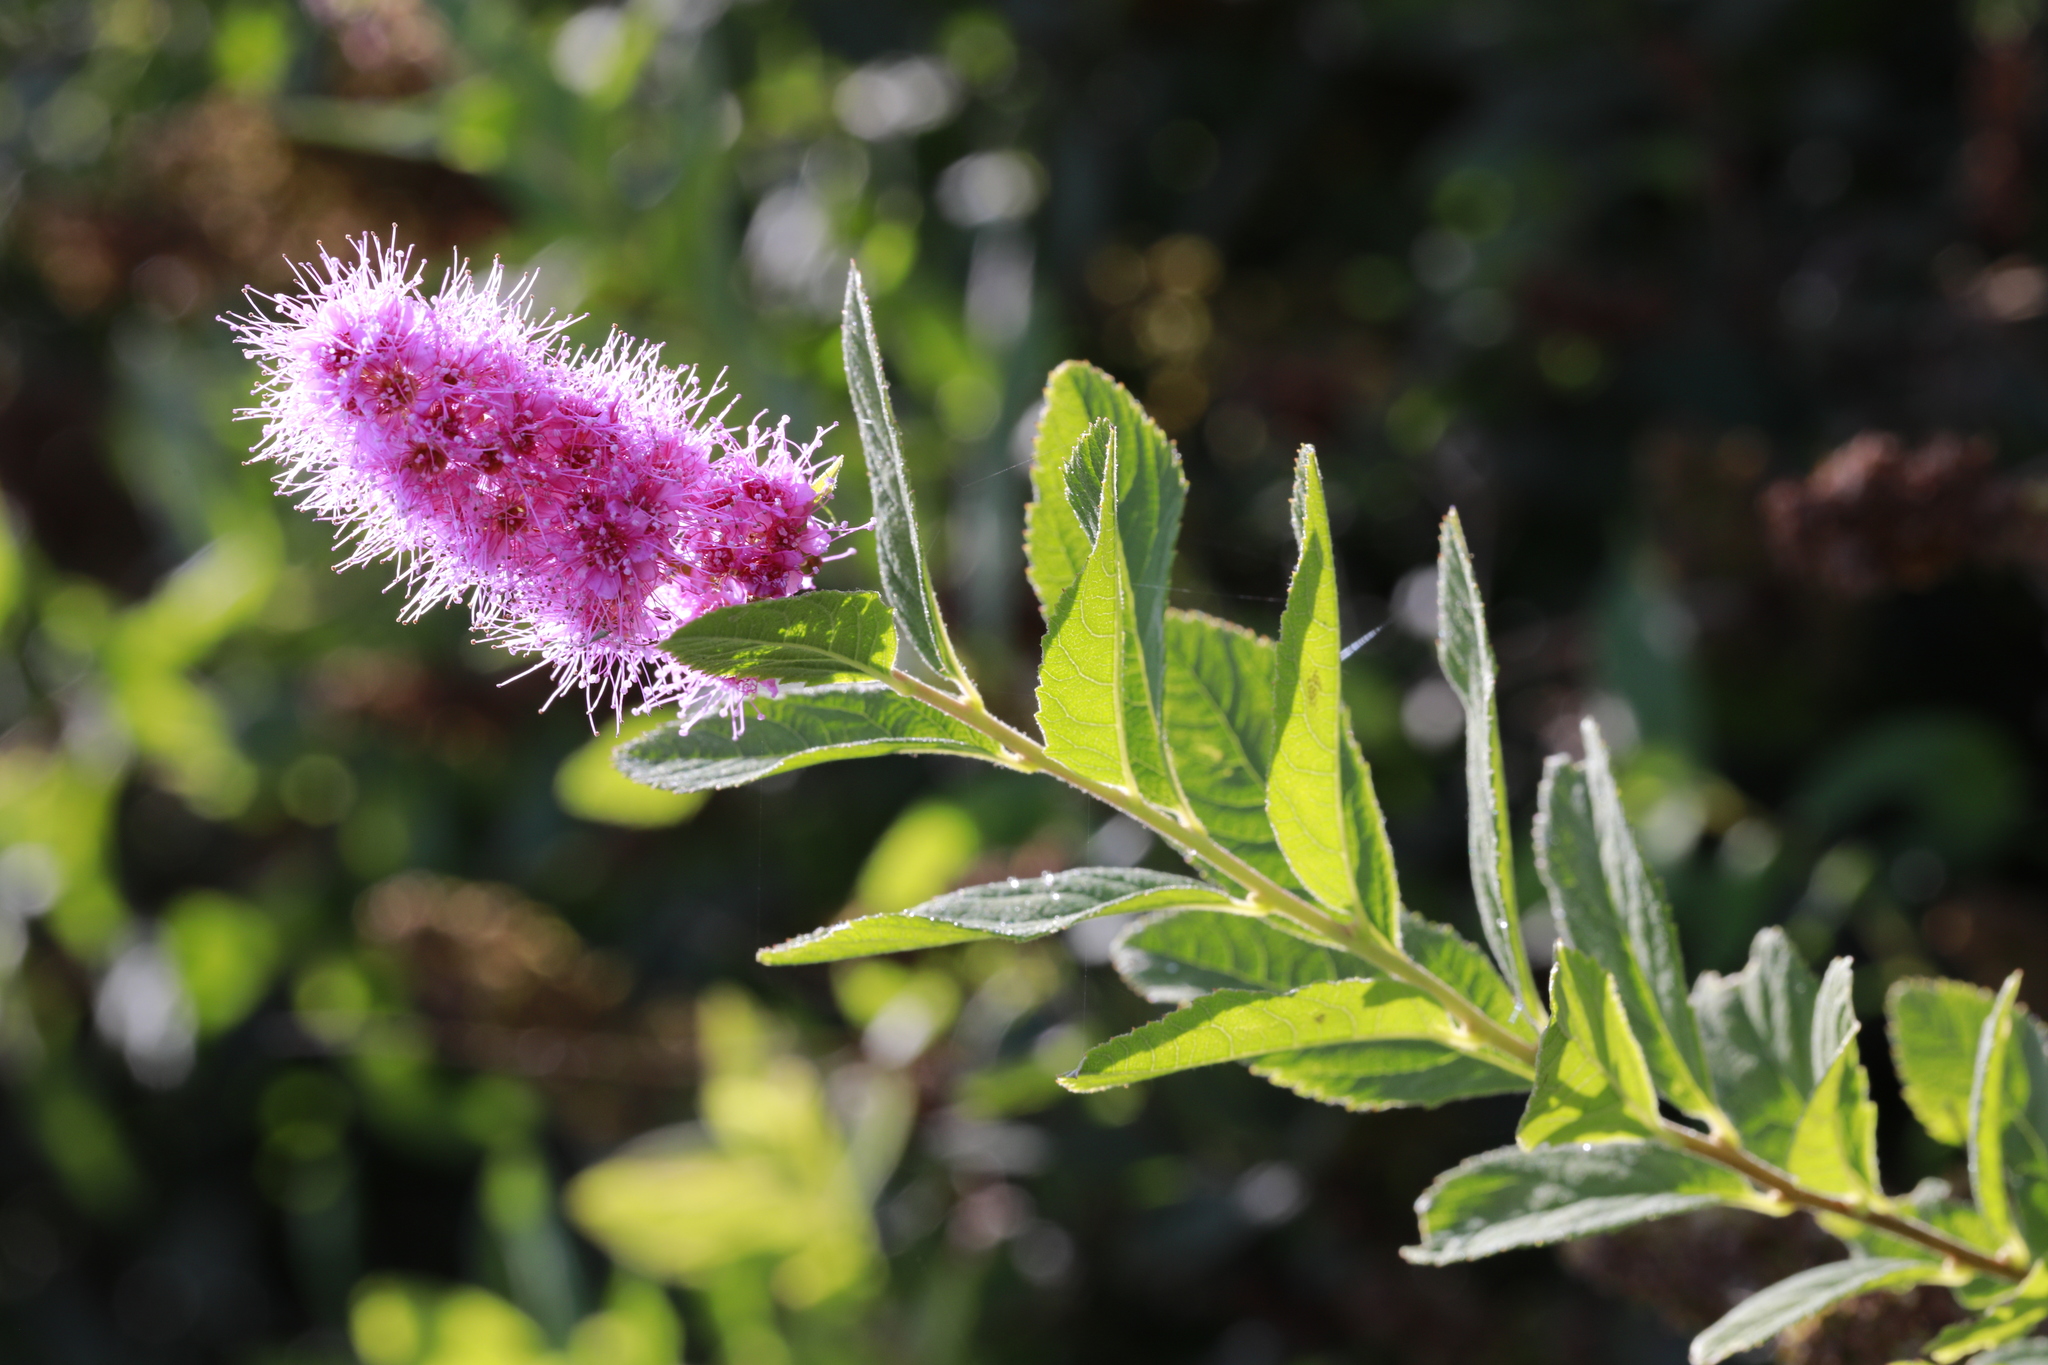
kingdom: Plantae
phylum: Tracheophyta
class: Magnoliopsida
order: Rosales
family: Rosaceae
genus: Spiraea
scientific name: Spiraea douglasii
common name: Steeplebush
